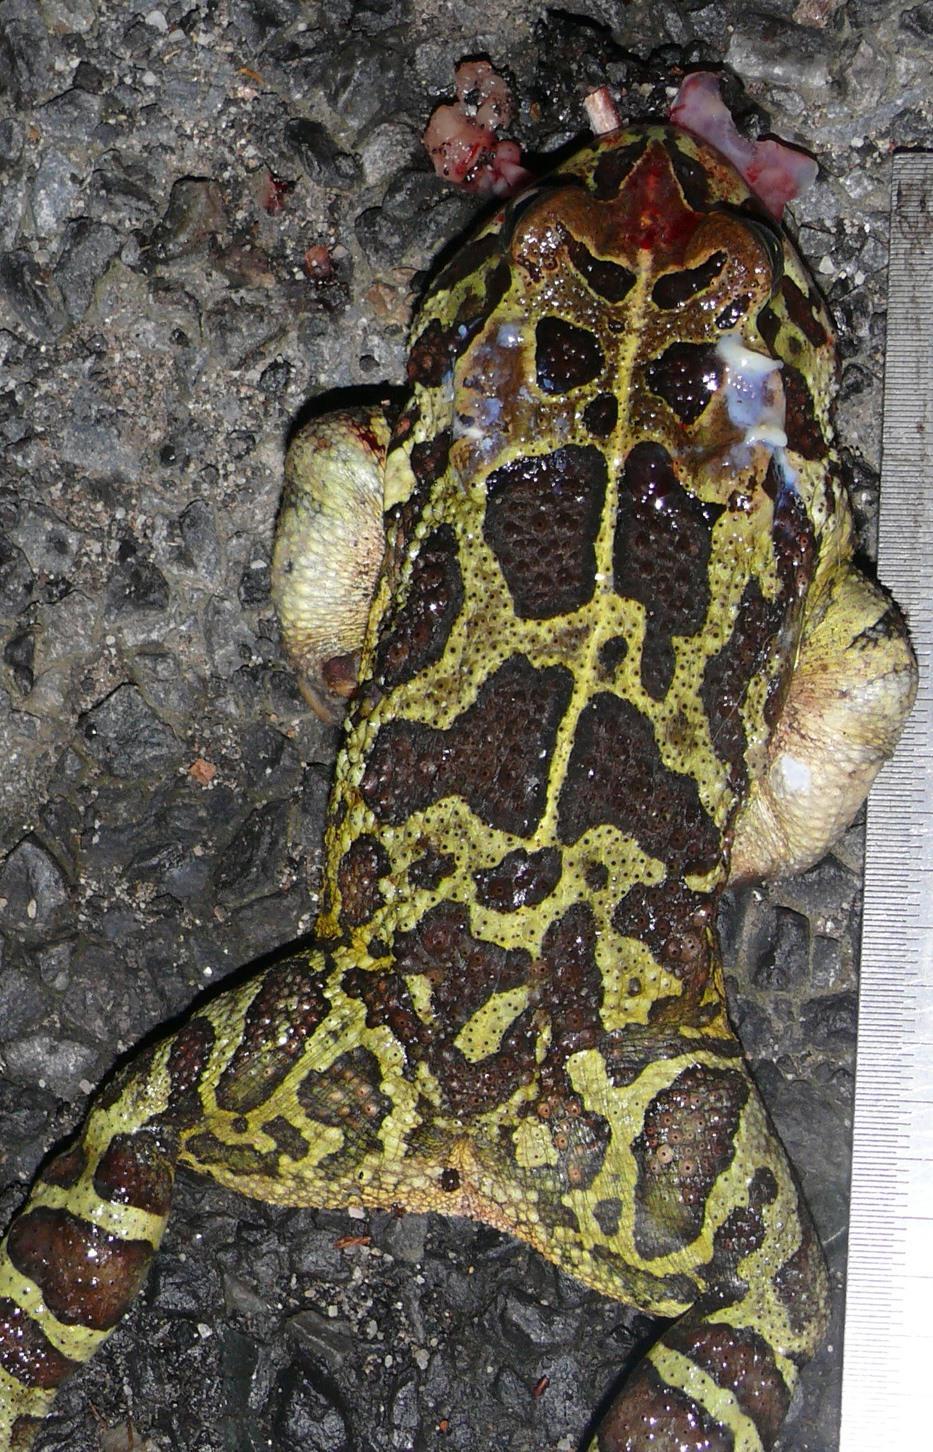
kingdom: Animalia
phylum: Chordata
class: Amphibia
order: Anura
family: Bufonidae
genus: Sclerophrys
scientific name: Sclerophrys pantherina
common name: Panther toad
